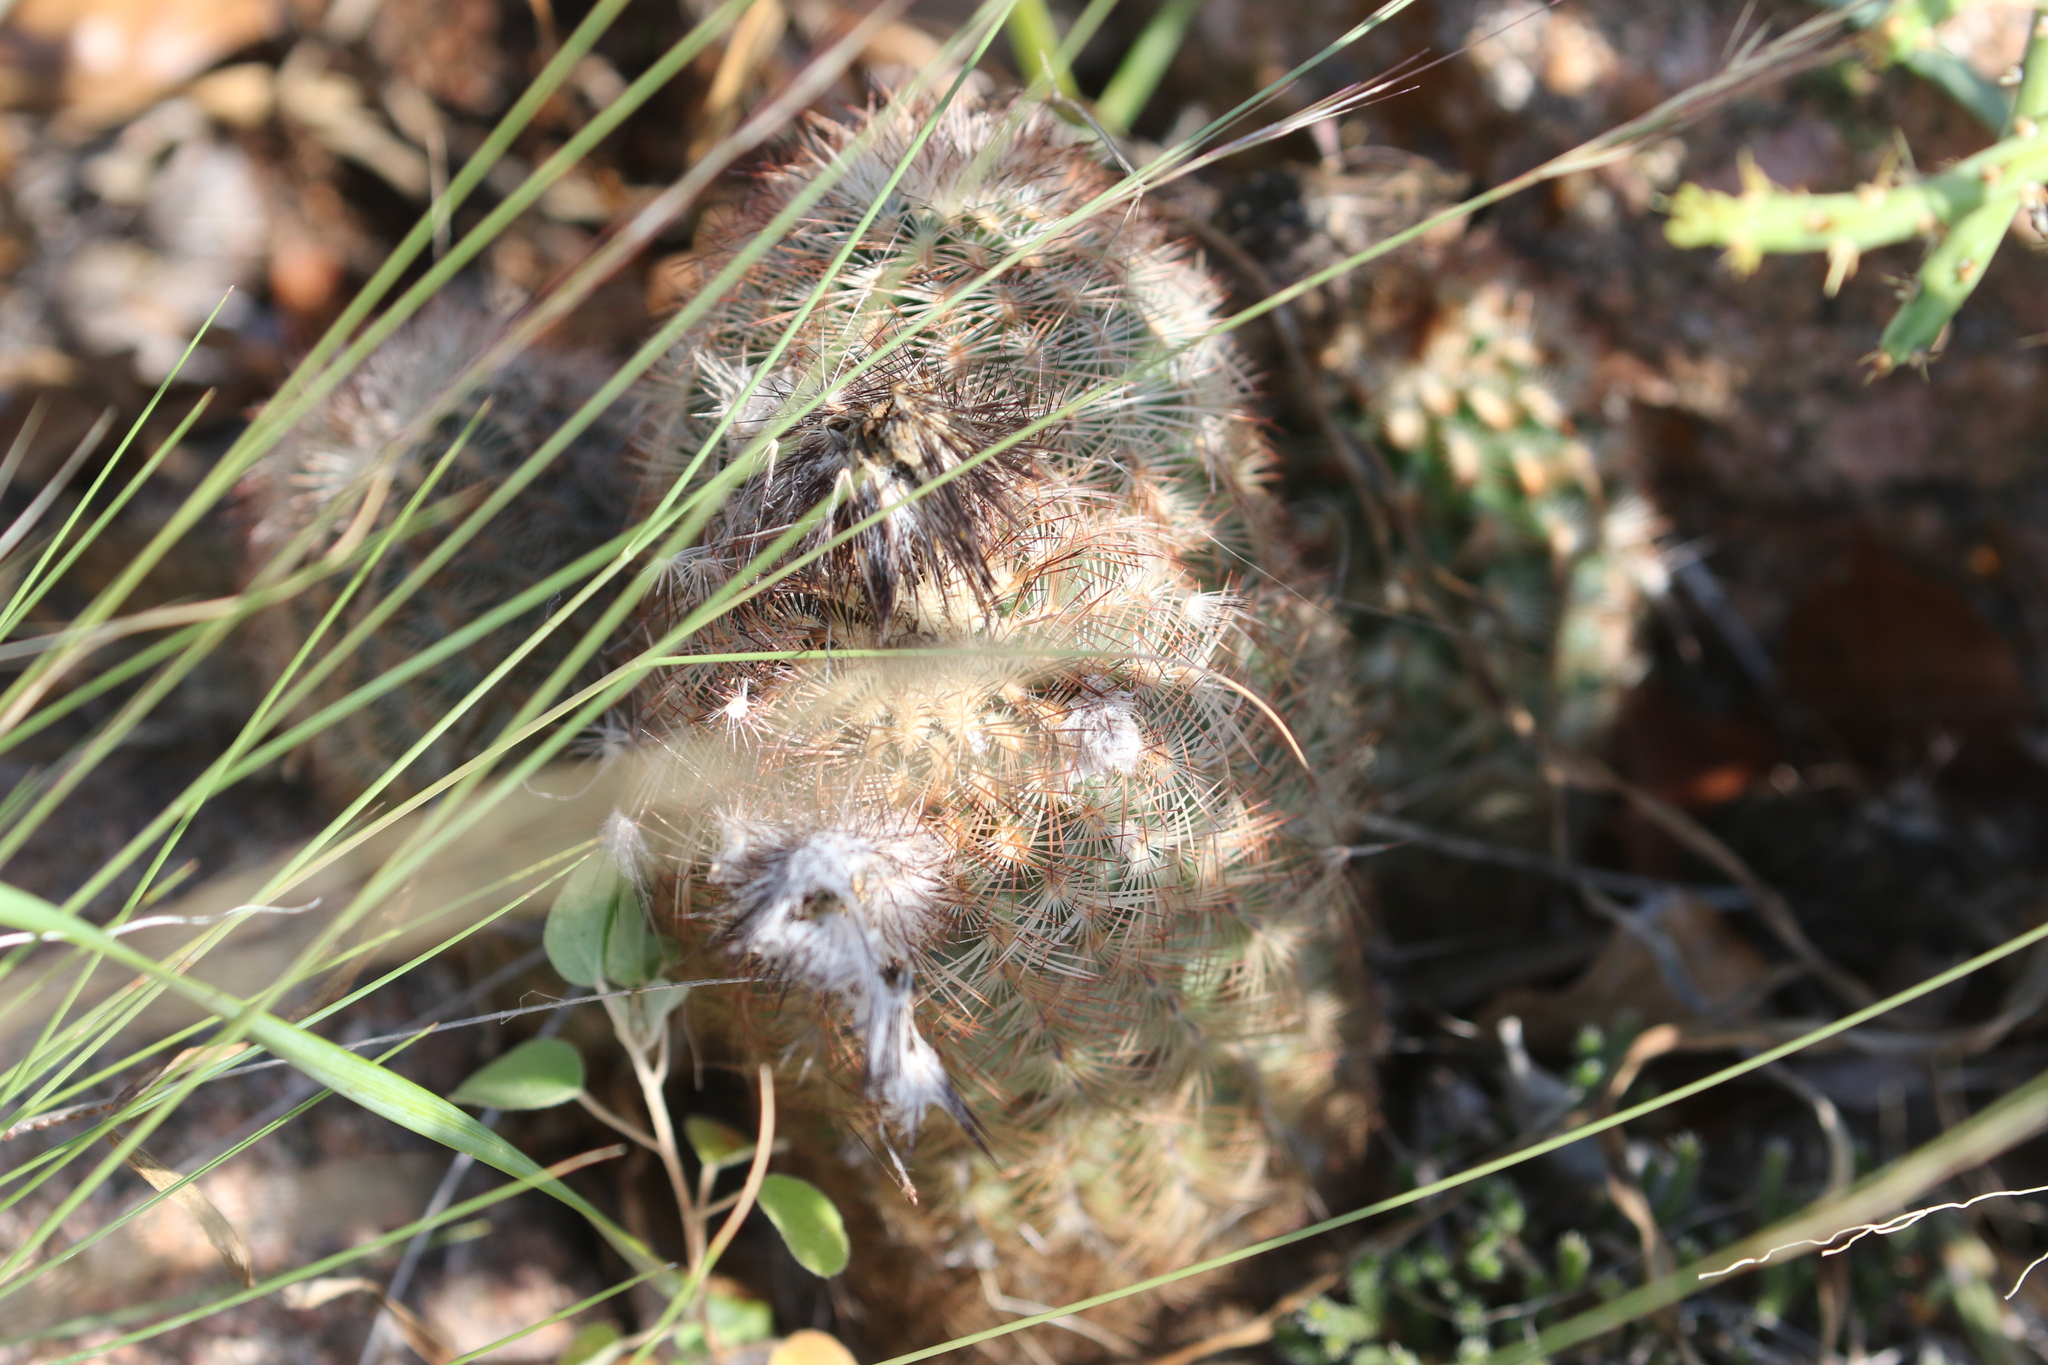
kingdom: Plantae
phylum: Tracheophyta
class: Magnoliopsida
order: Caryophyllales
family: Cactaceae
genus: Echinocereus
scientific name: Echinocereus reichenbachii
